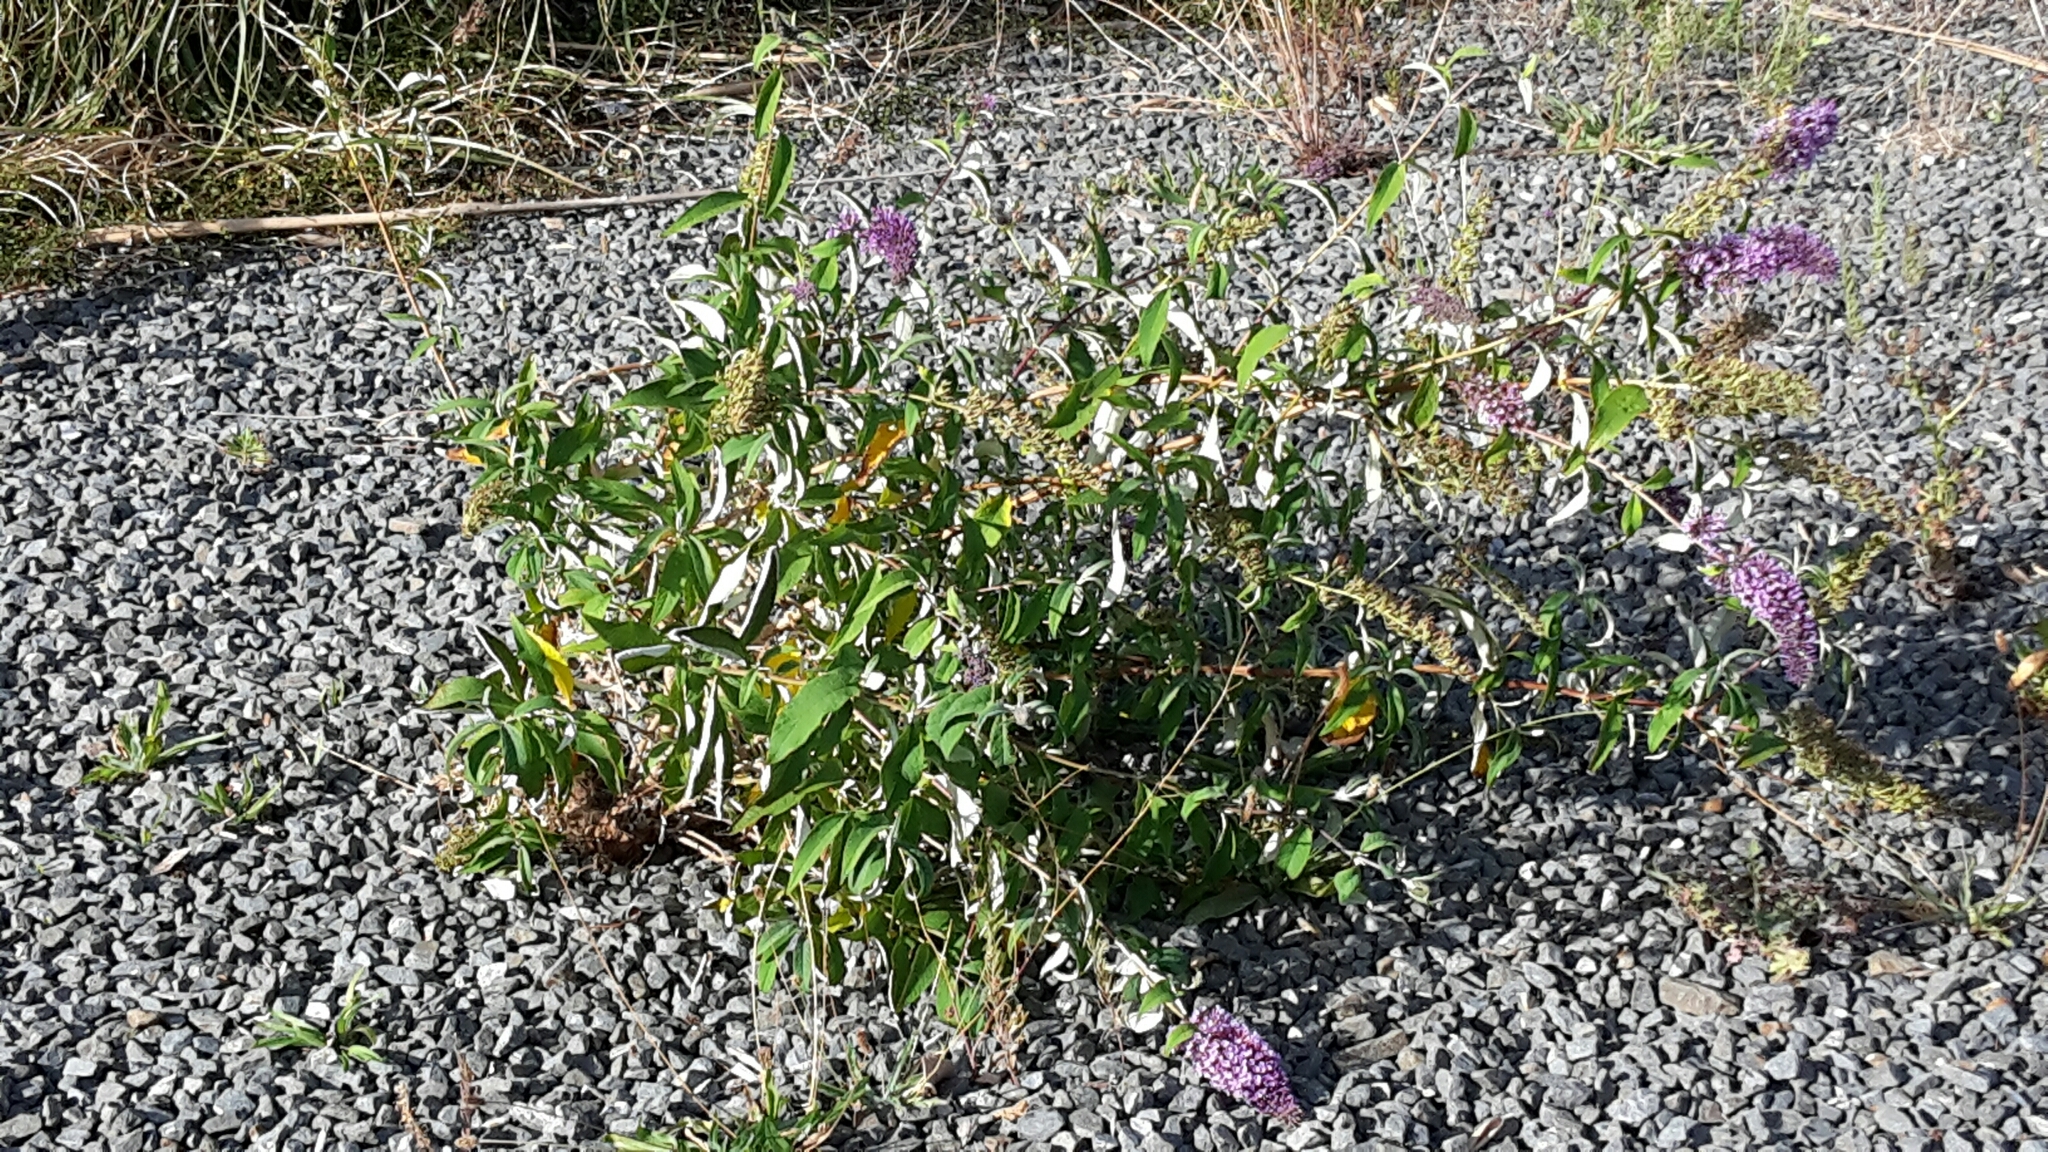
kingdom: Plantae
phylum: Tracheophyta
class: Magnoliopsida
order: Lamiales
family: Scrophulariaceae
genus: Buddleja
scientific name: Buddleja davidii
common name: Butterfly-bush
